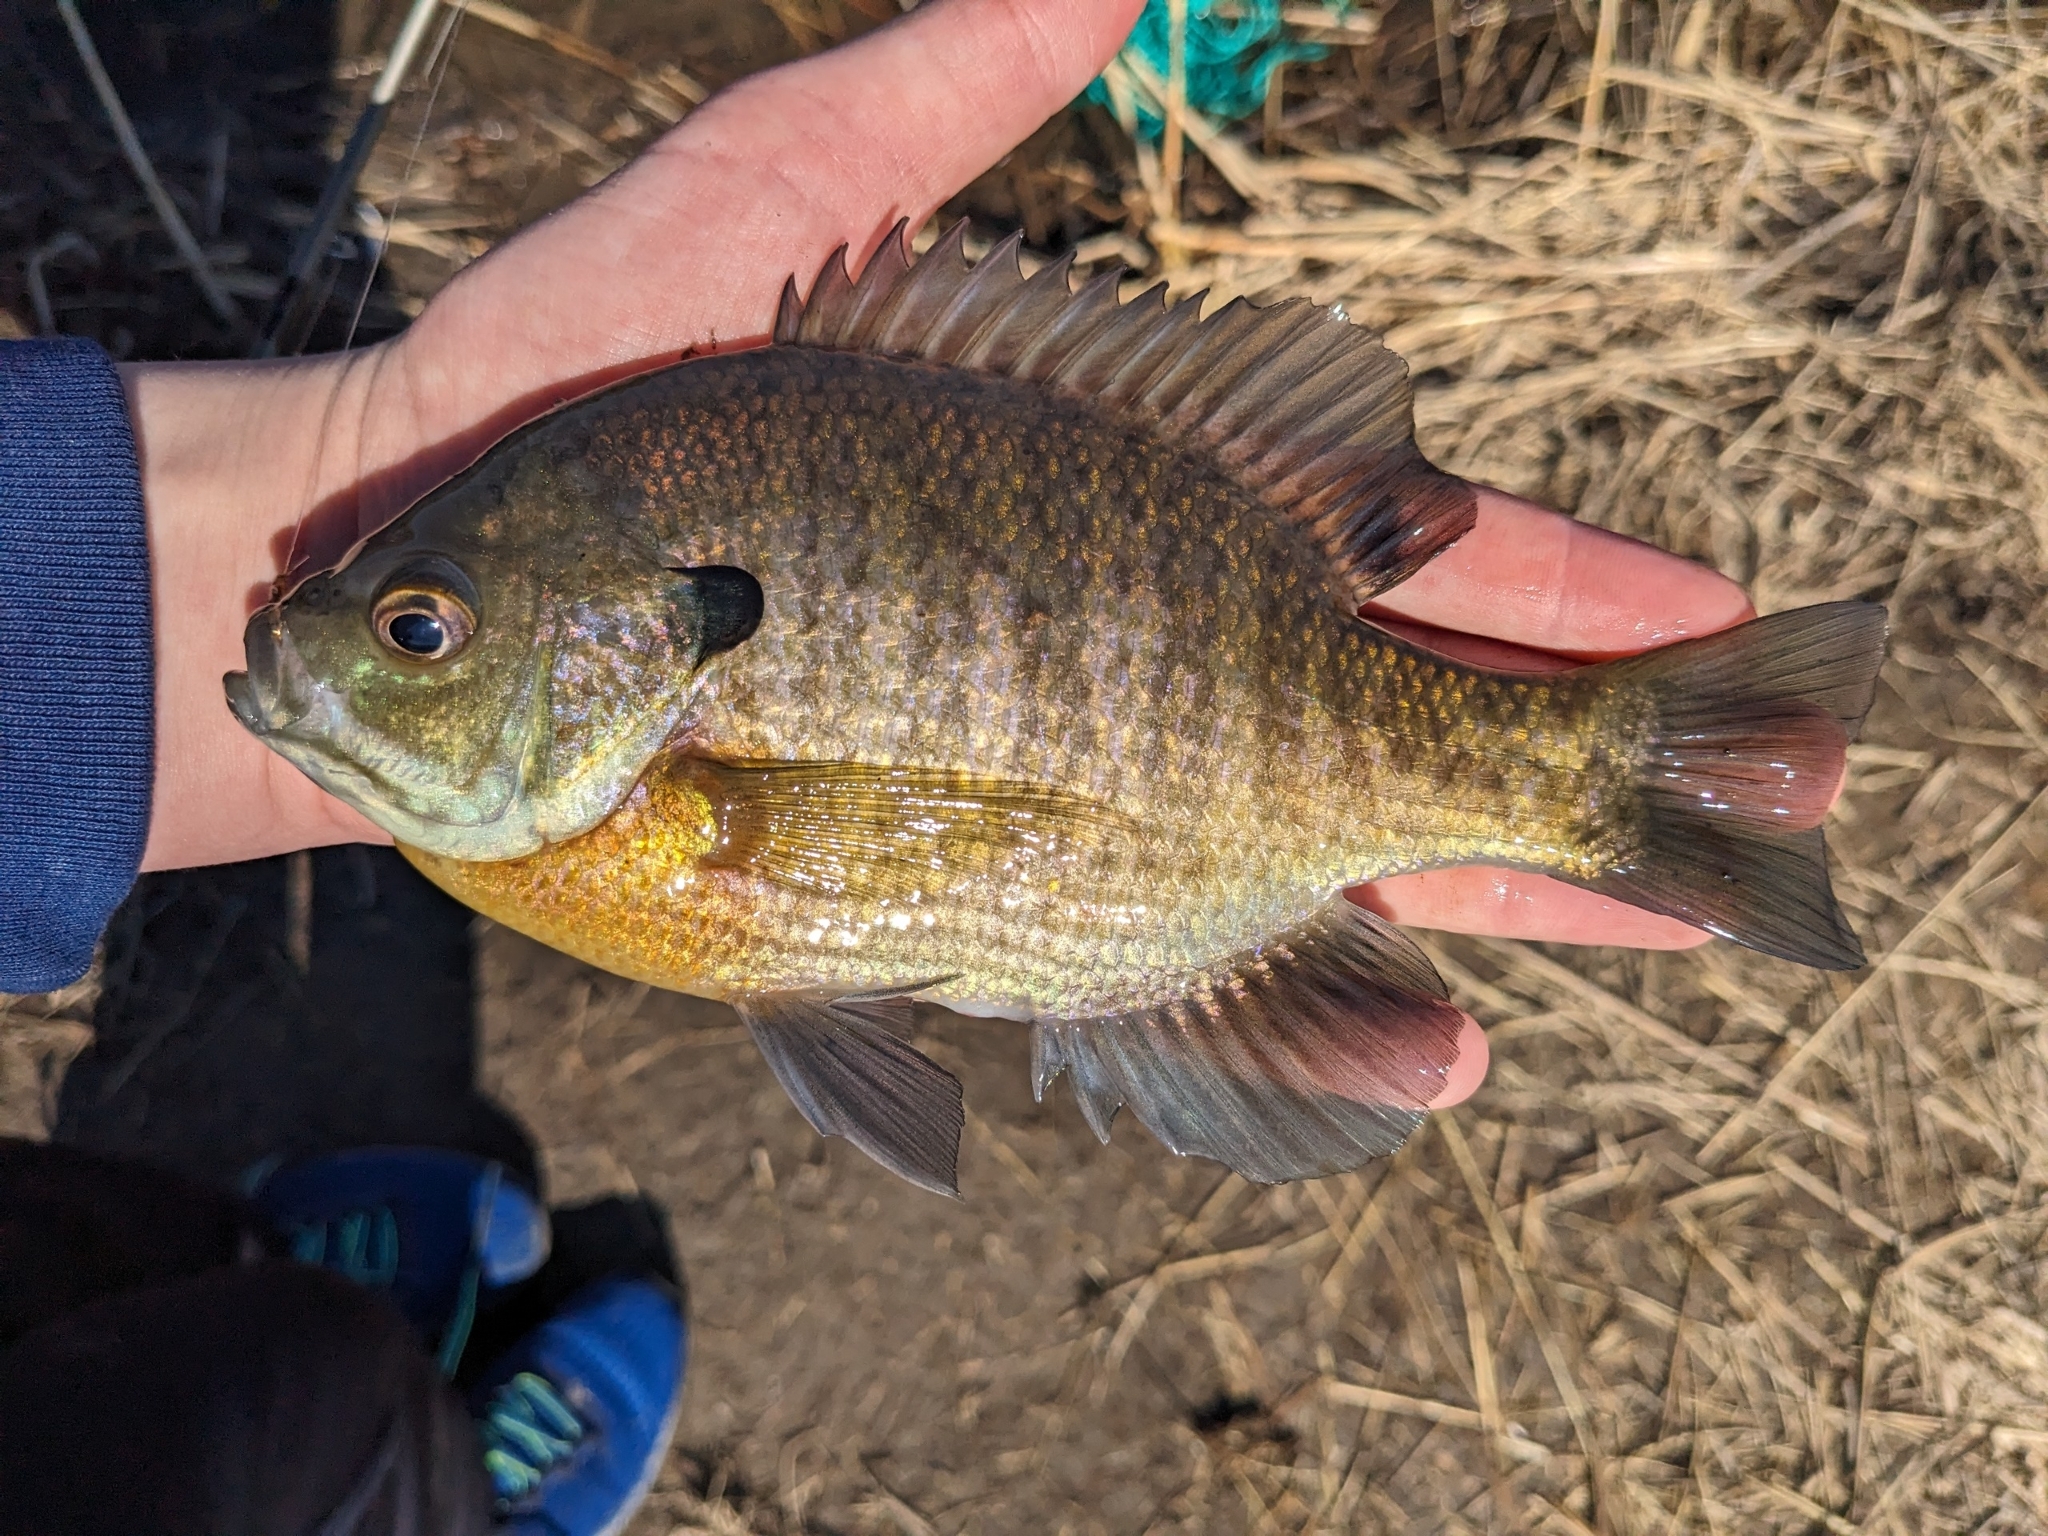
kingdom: Animalia
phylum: Chordata
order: Perciformes
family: Centrarchidae
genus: Lepomis
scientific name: Lepomis macrochirus
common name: Bluegill
